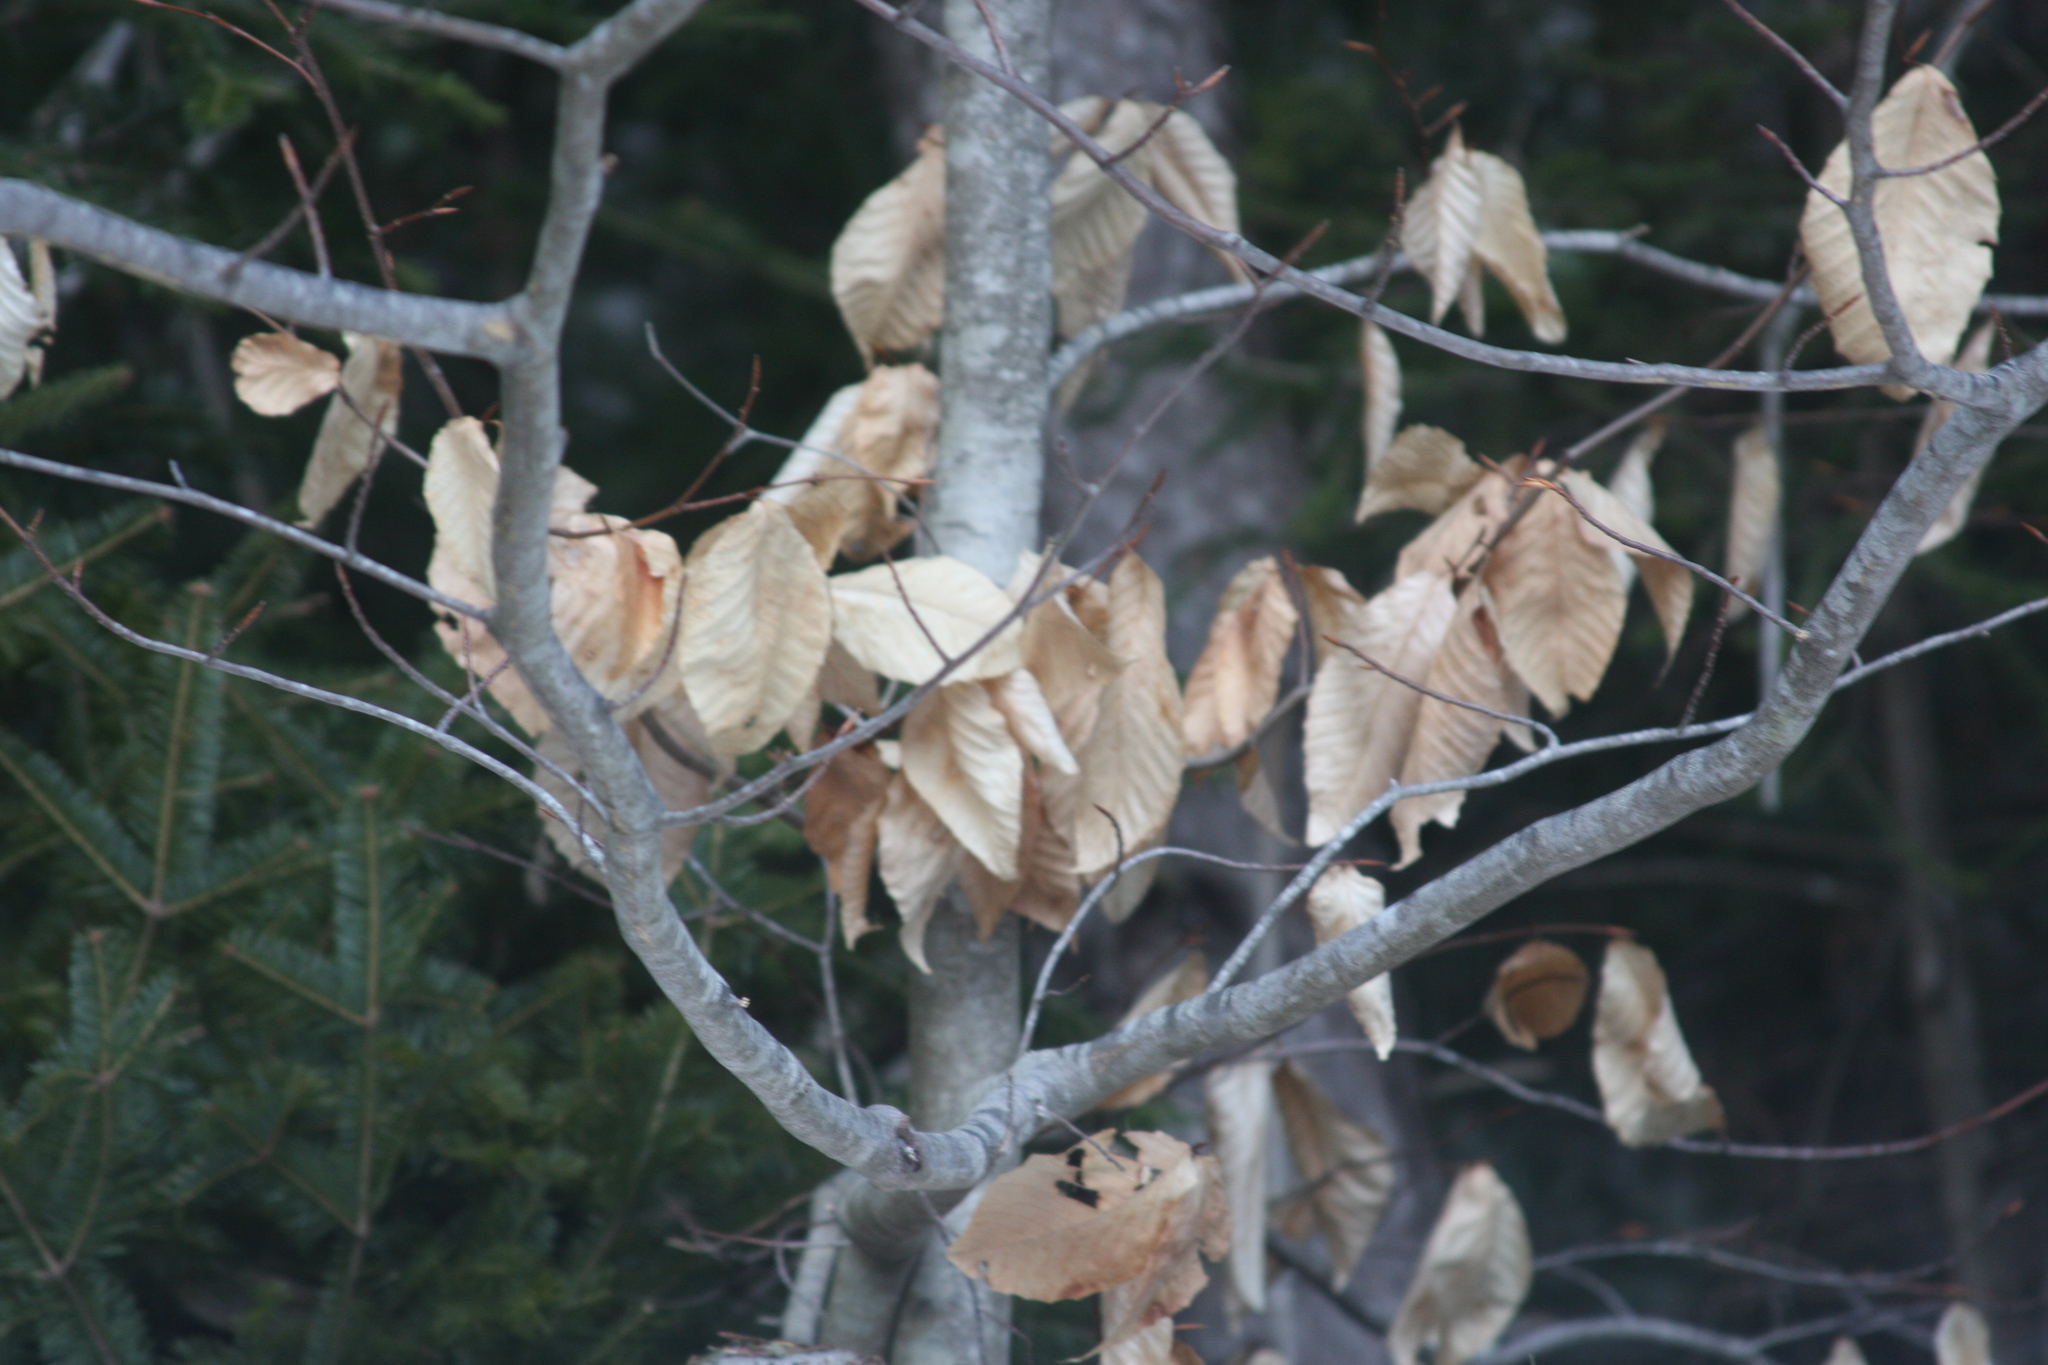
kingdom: Plantae
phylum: Tracheophyta
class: Magnoliopsida
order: Fagales
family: Fagaceae
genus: Fagus
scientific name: Fagus grandifolia
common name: American beech
